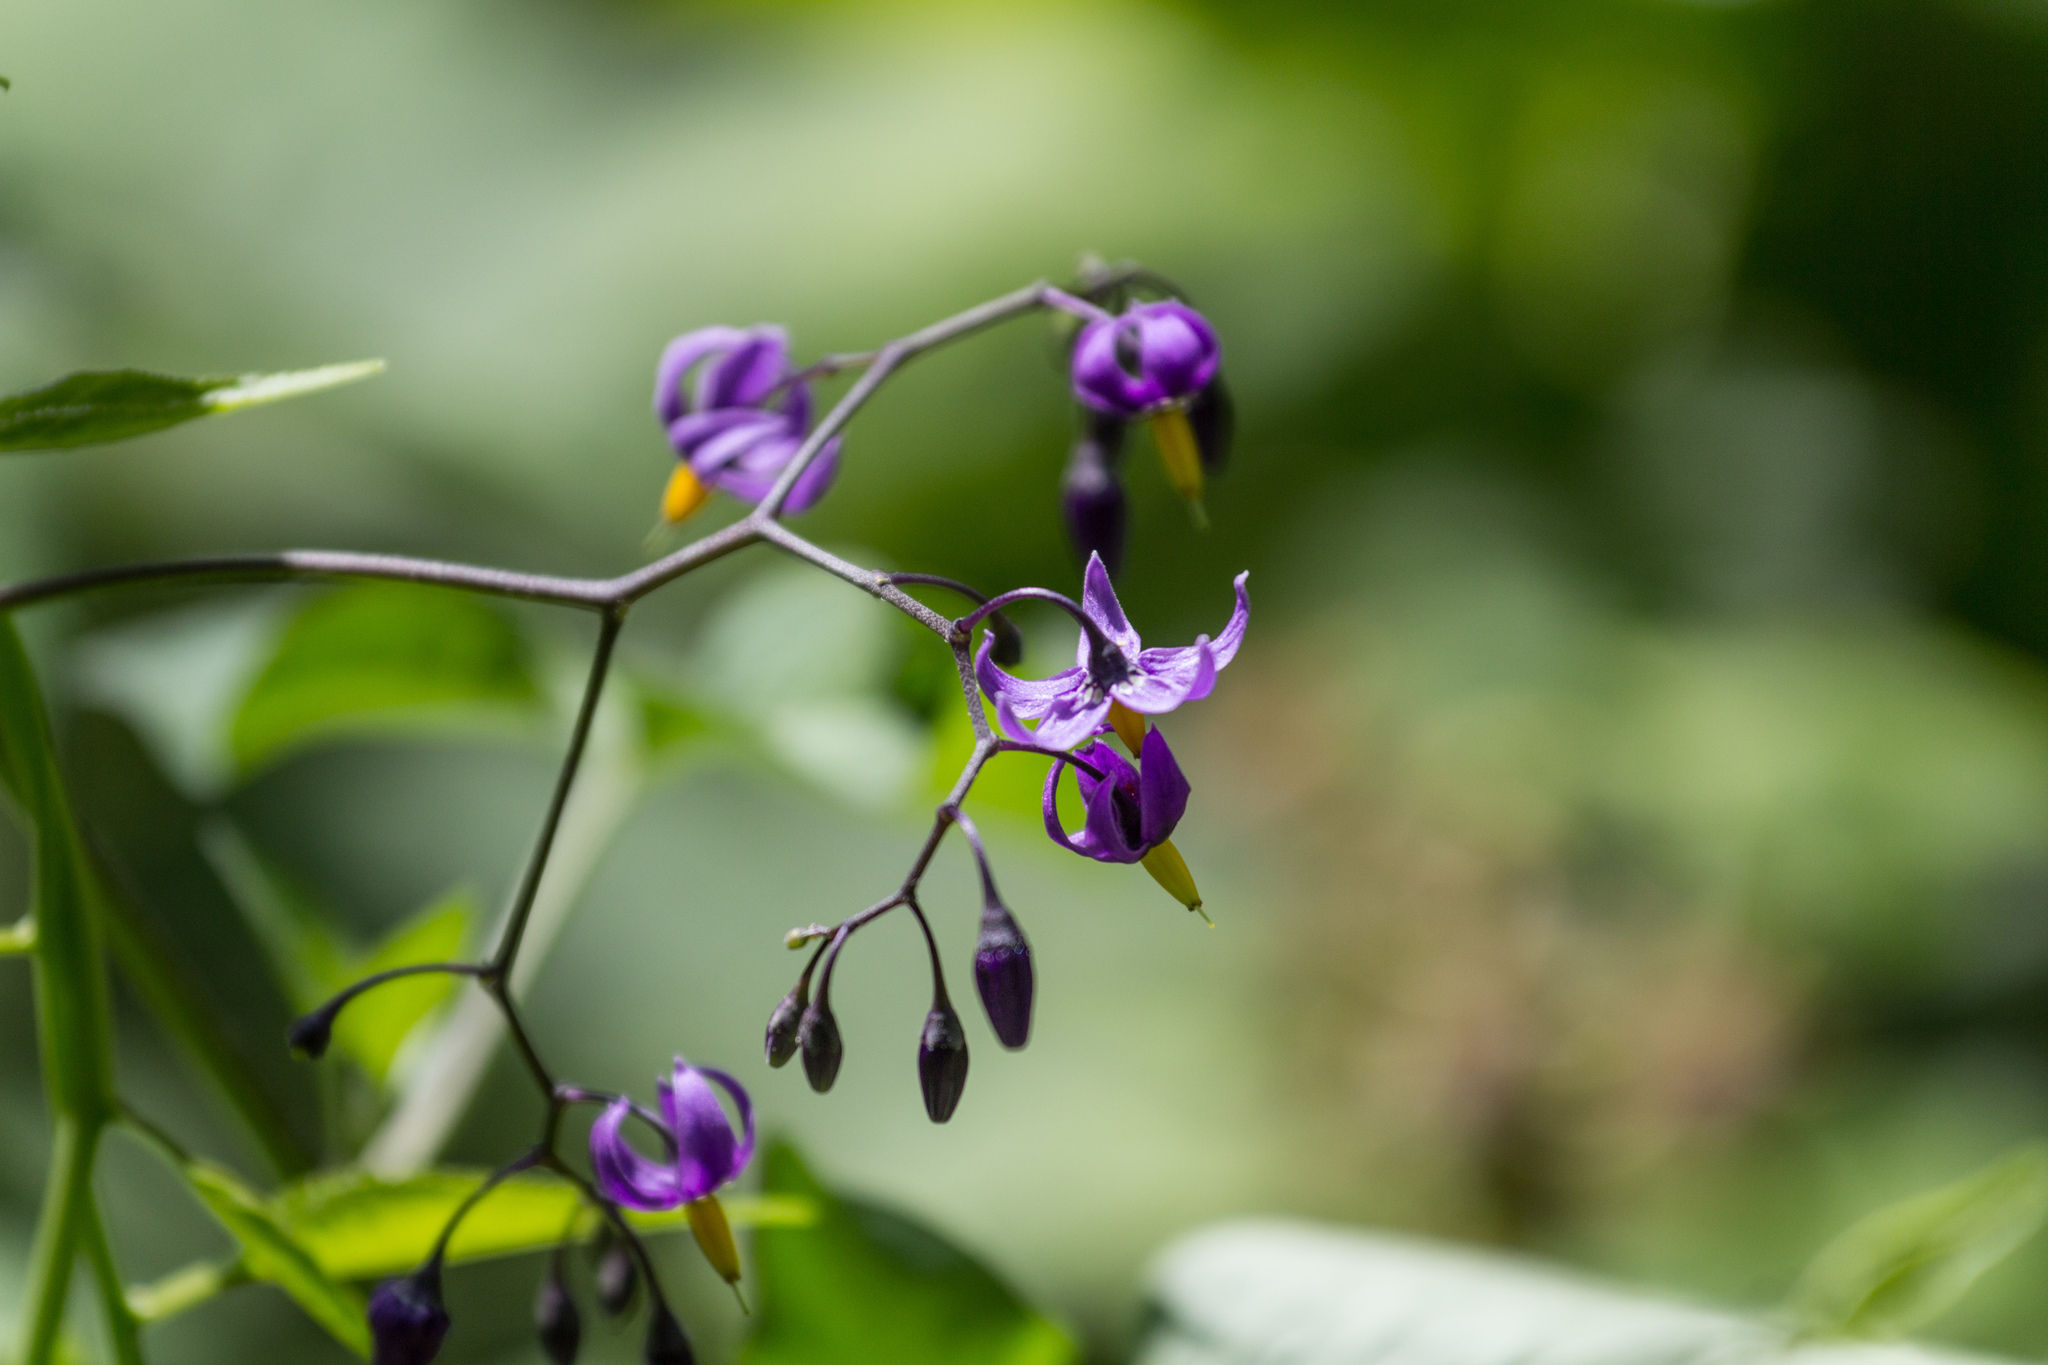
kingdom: Plantae
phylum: Tracheophyta
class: Magnoliopsida
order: Solanales
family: Solanaceae
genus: Solanum
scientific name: Solanum dulcamara
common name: Climbing nightshade
